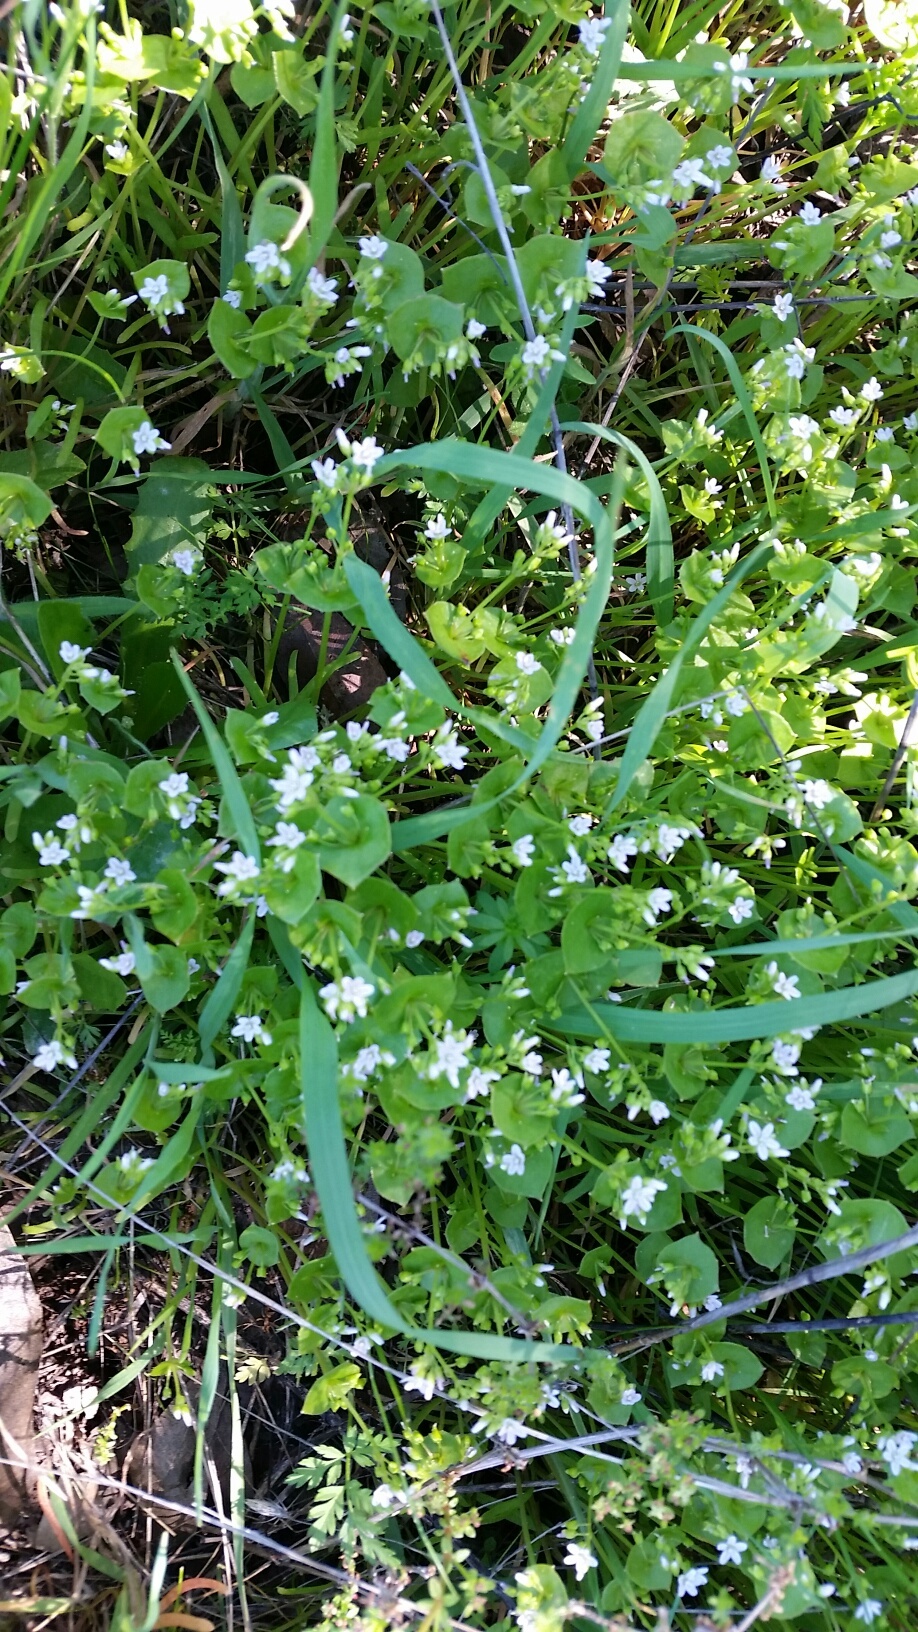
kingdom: Plantae
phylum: Tracheophyta
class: Magnoliopsida
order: Caryophyllales
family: Montiaceae
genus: Claytonia
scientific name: Claytonia perfoliata
